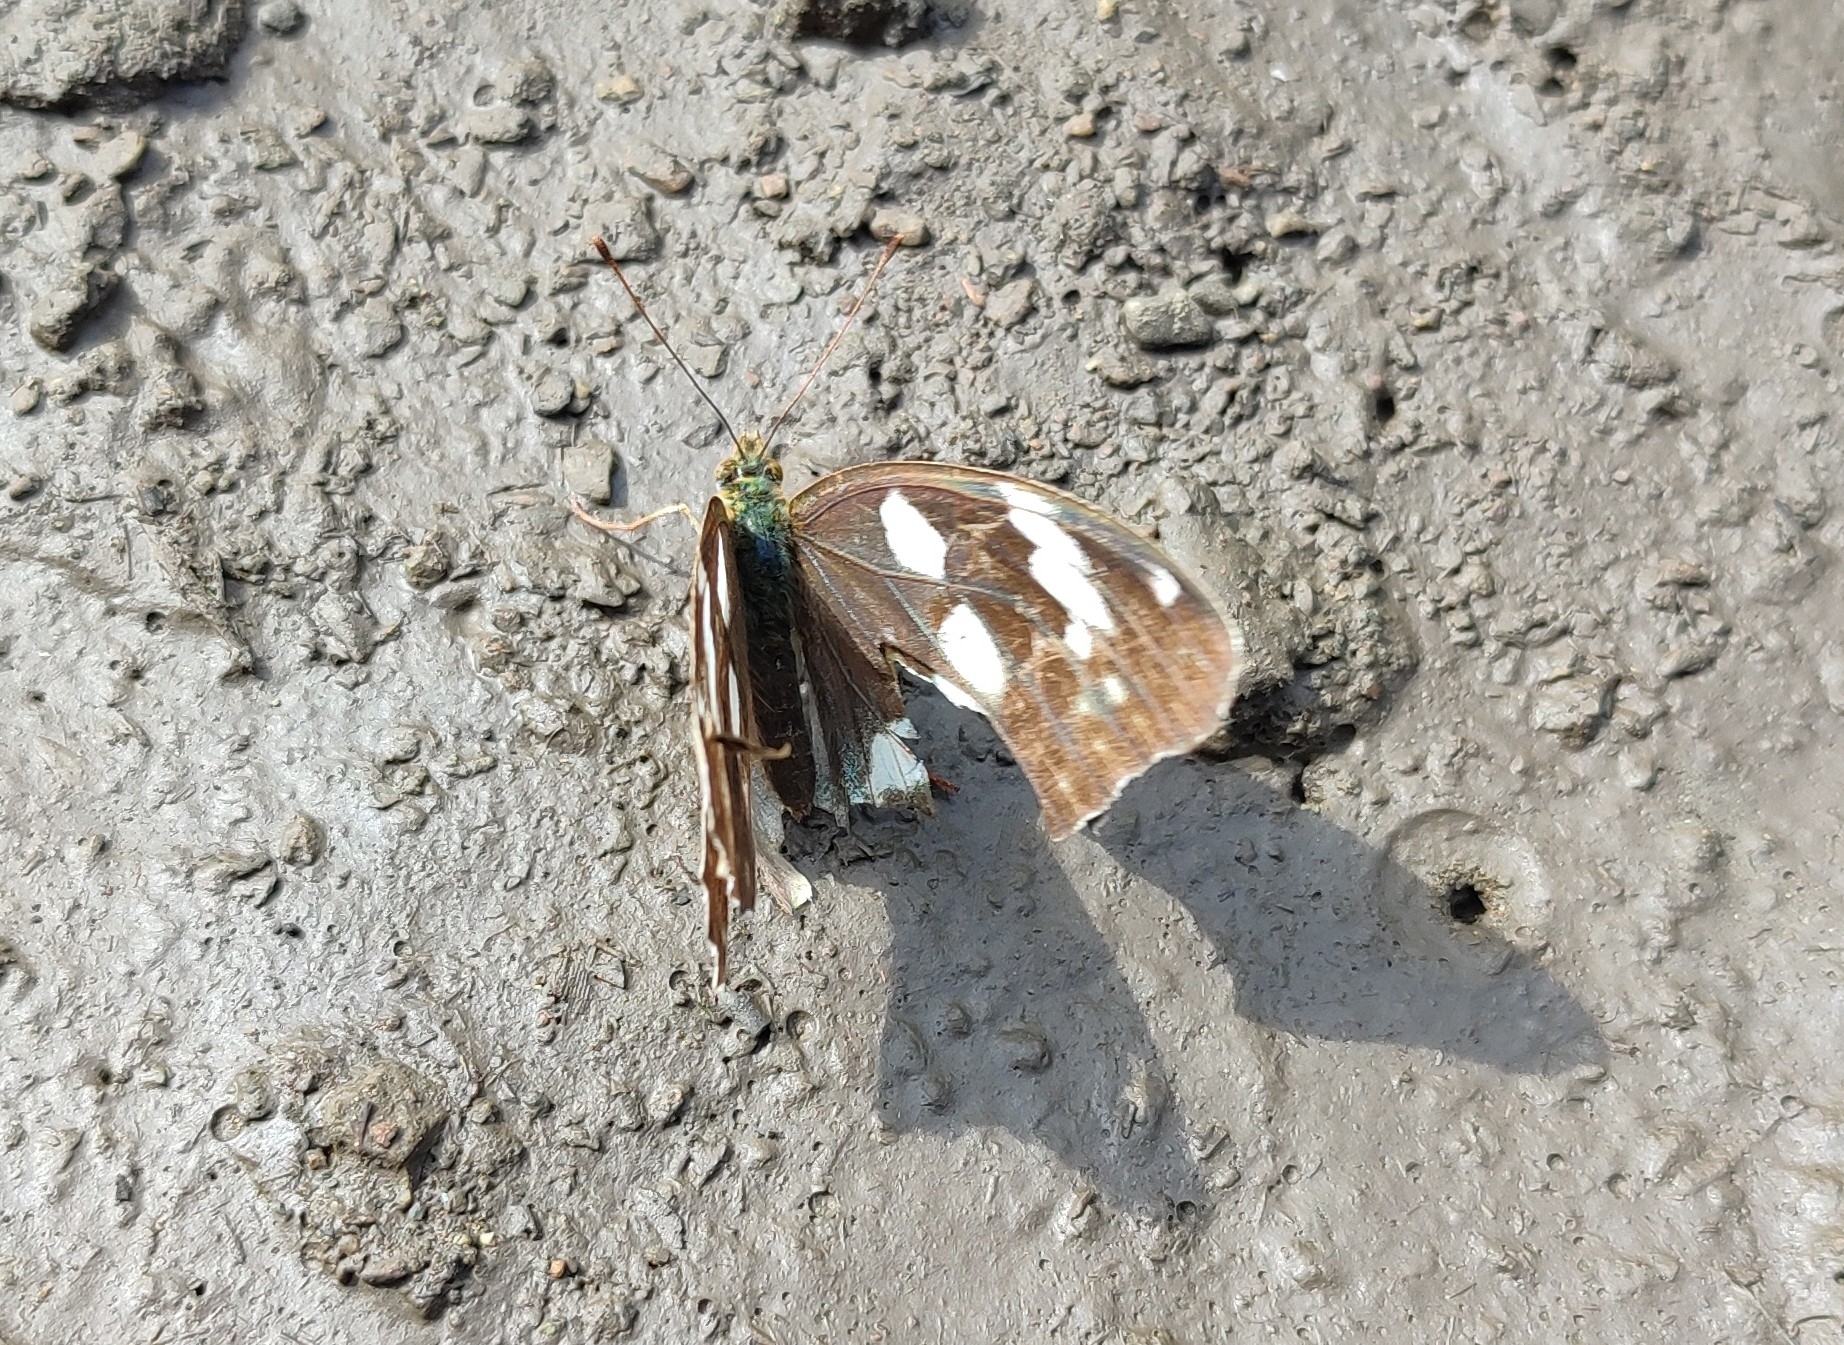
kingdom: Animalia
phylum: Arthropoda
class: Insecta
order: Lepidoptera
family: Nymphalidae
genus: Damora
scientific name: Damora sagana
